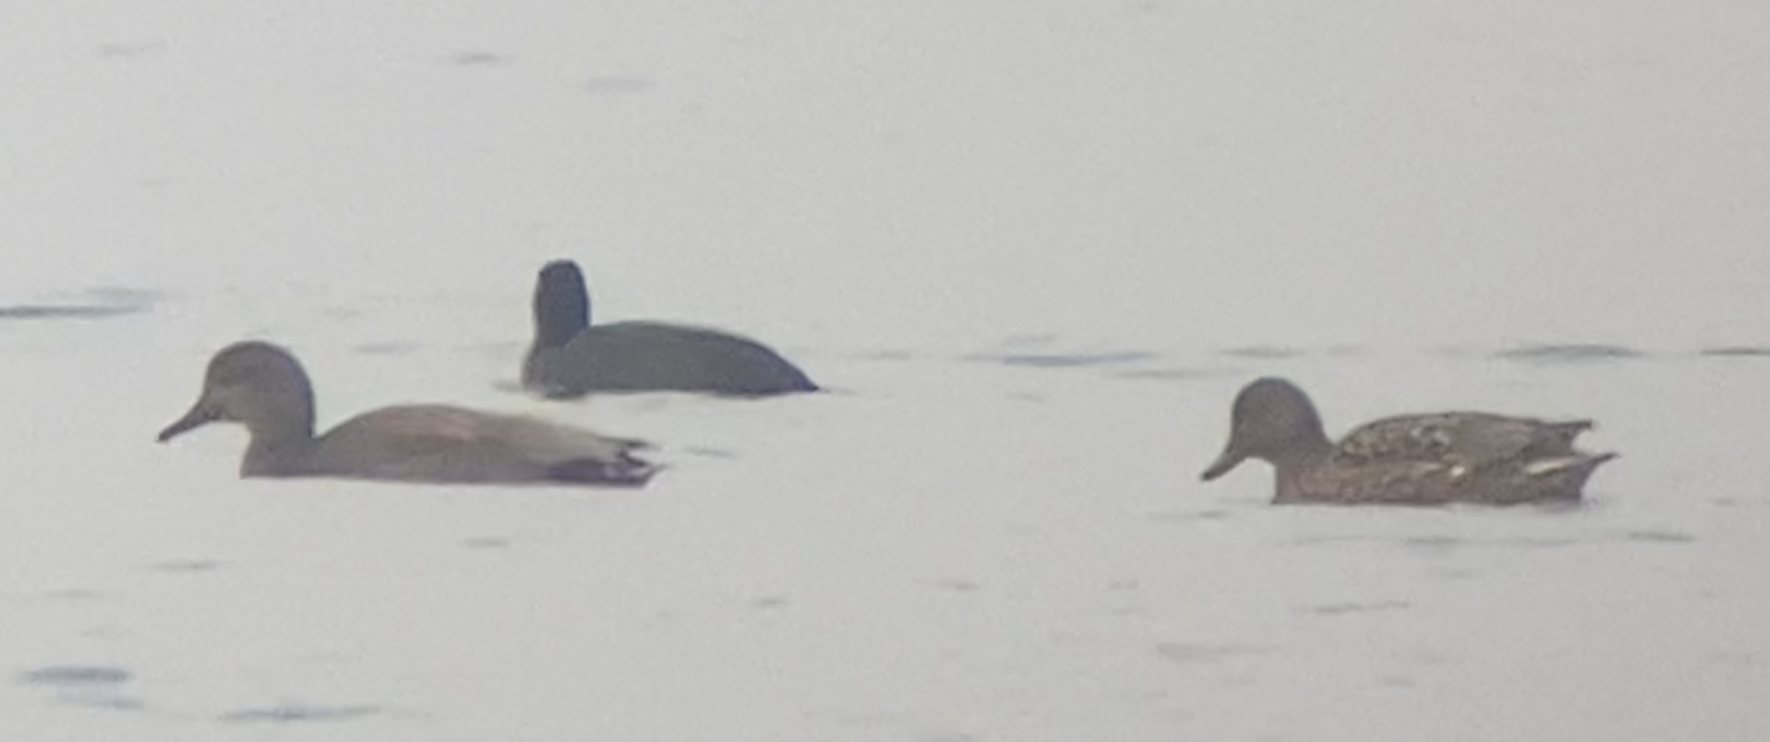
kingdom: Animalia
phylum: Chordata
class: Aves
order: Anseriformes
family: Anatidae
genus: Mareca
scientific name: Mareca strepera
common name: Gadwall
